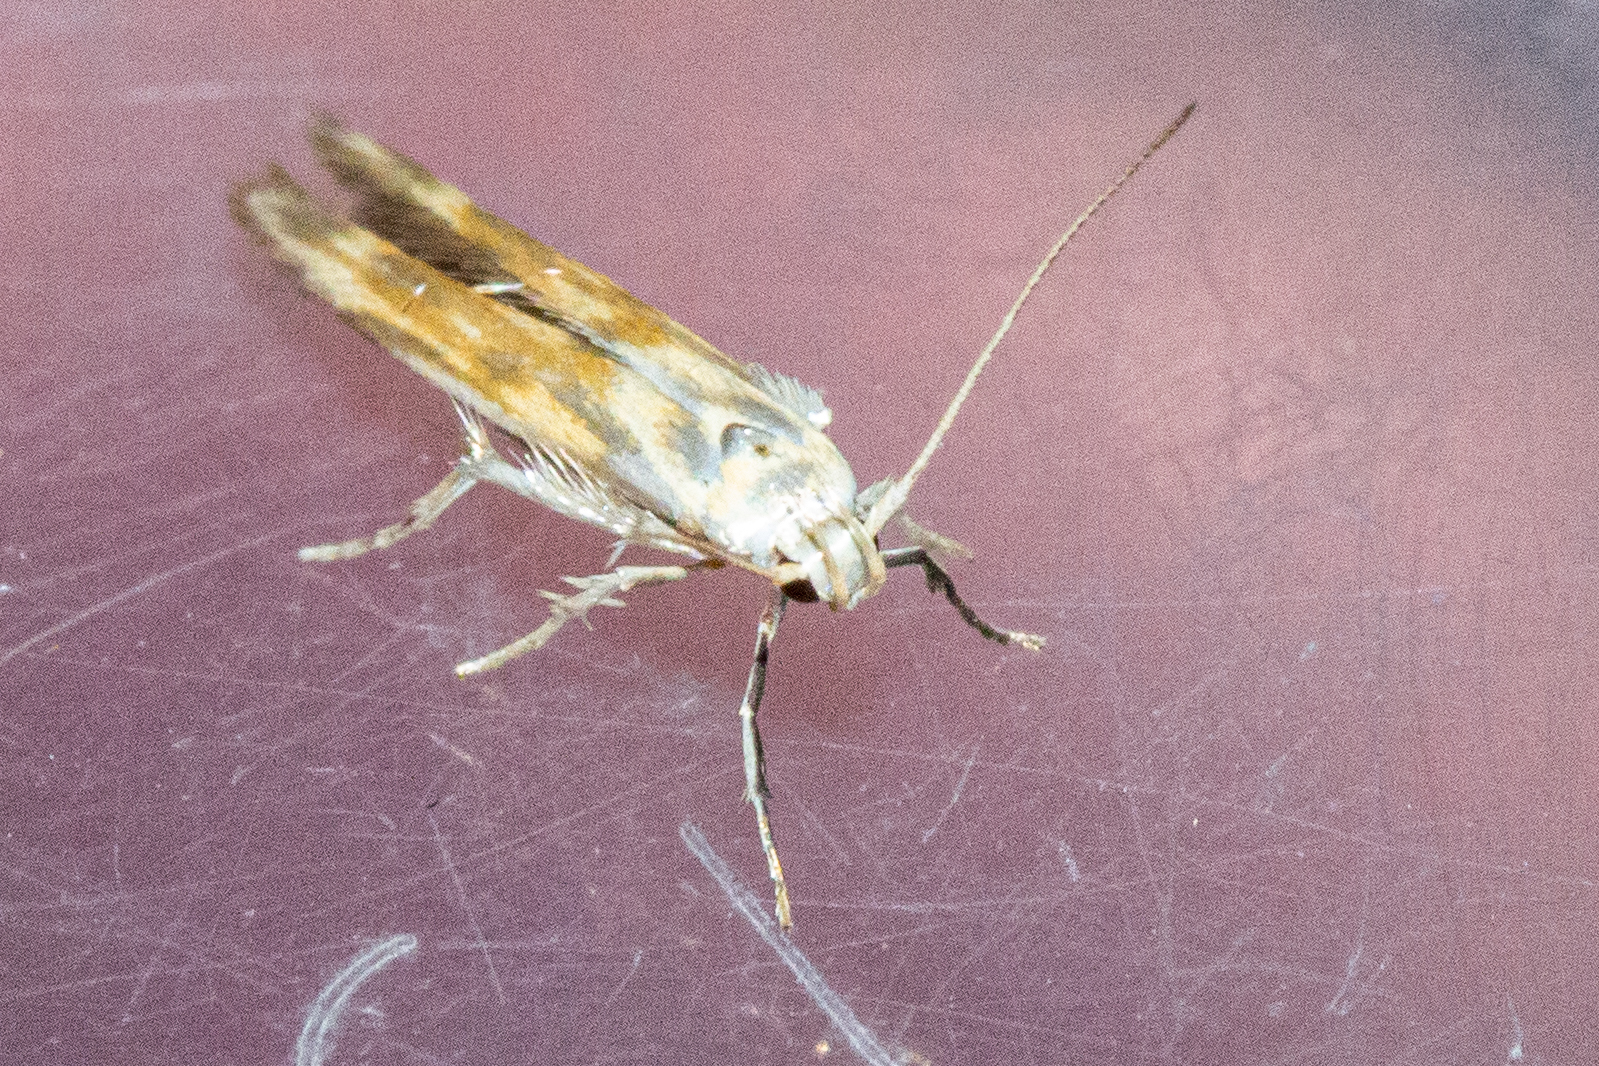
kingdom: Animalia
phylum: Arthropoda
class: Insecta
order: Lepidoptera
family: Stathmopodidae
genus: Stathmopoda
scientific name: Stathmopoda aposema
